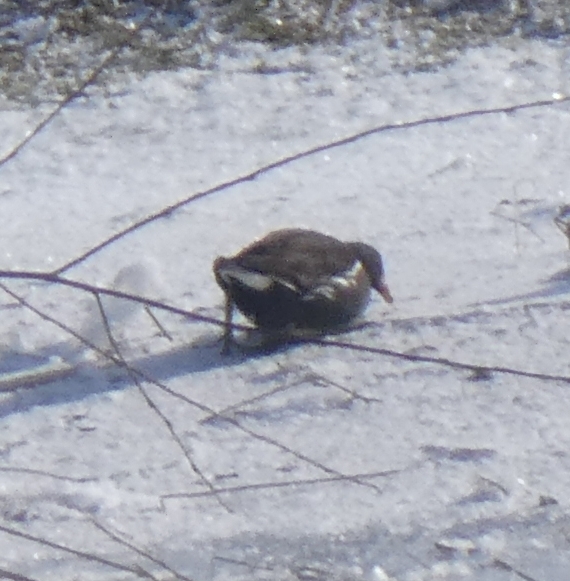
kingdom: Animalia
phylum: Chordata
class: Aves
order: Gruiformes
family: Rallidae
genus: Gallinula
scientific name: Gallinula chloropus
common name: Common moorhen
